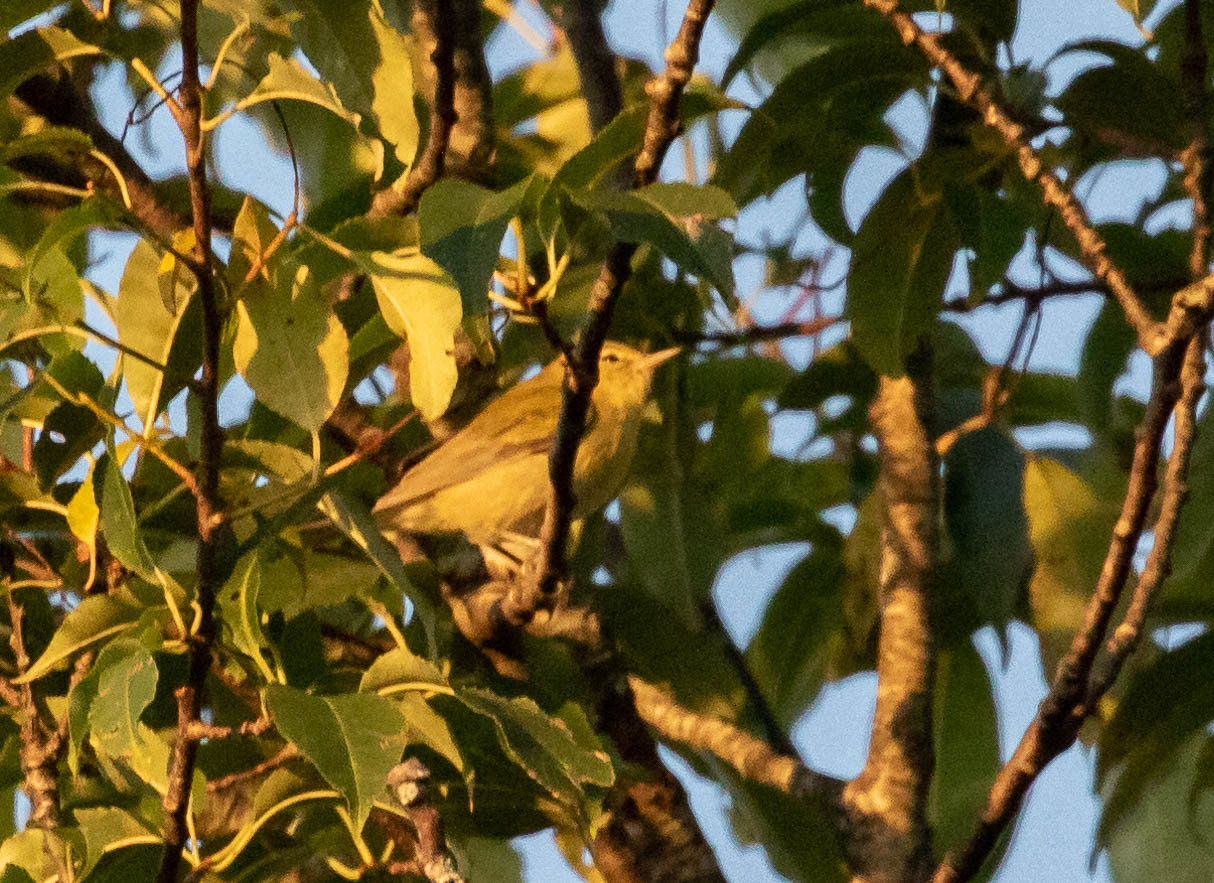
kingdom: Animalia
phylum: Chordata
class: Aves
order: Passeriformes
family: Parulidae
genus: Leiothlypis
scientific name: Leiothlypis peregrina
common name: Tennessee warbler
